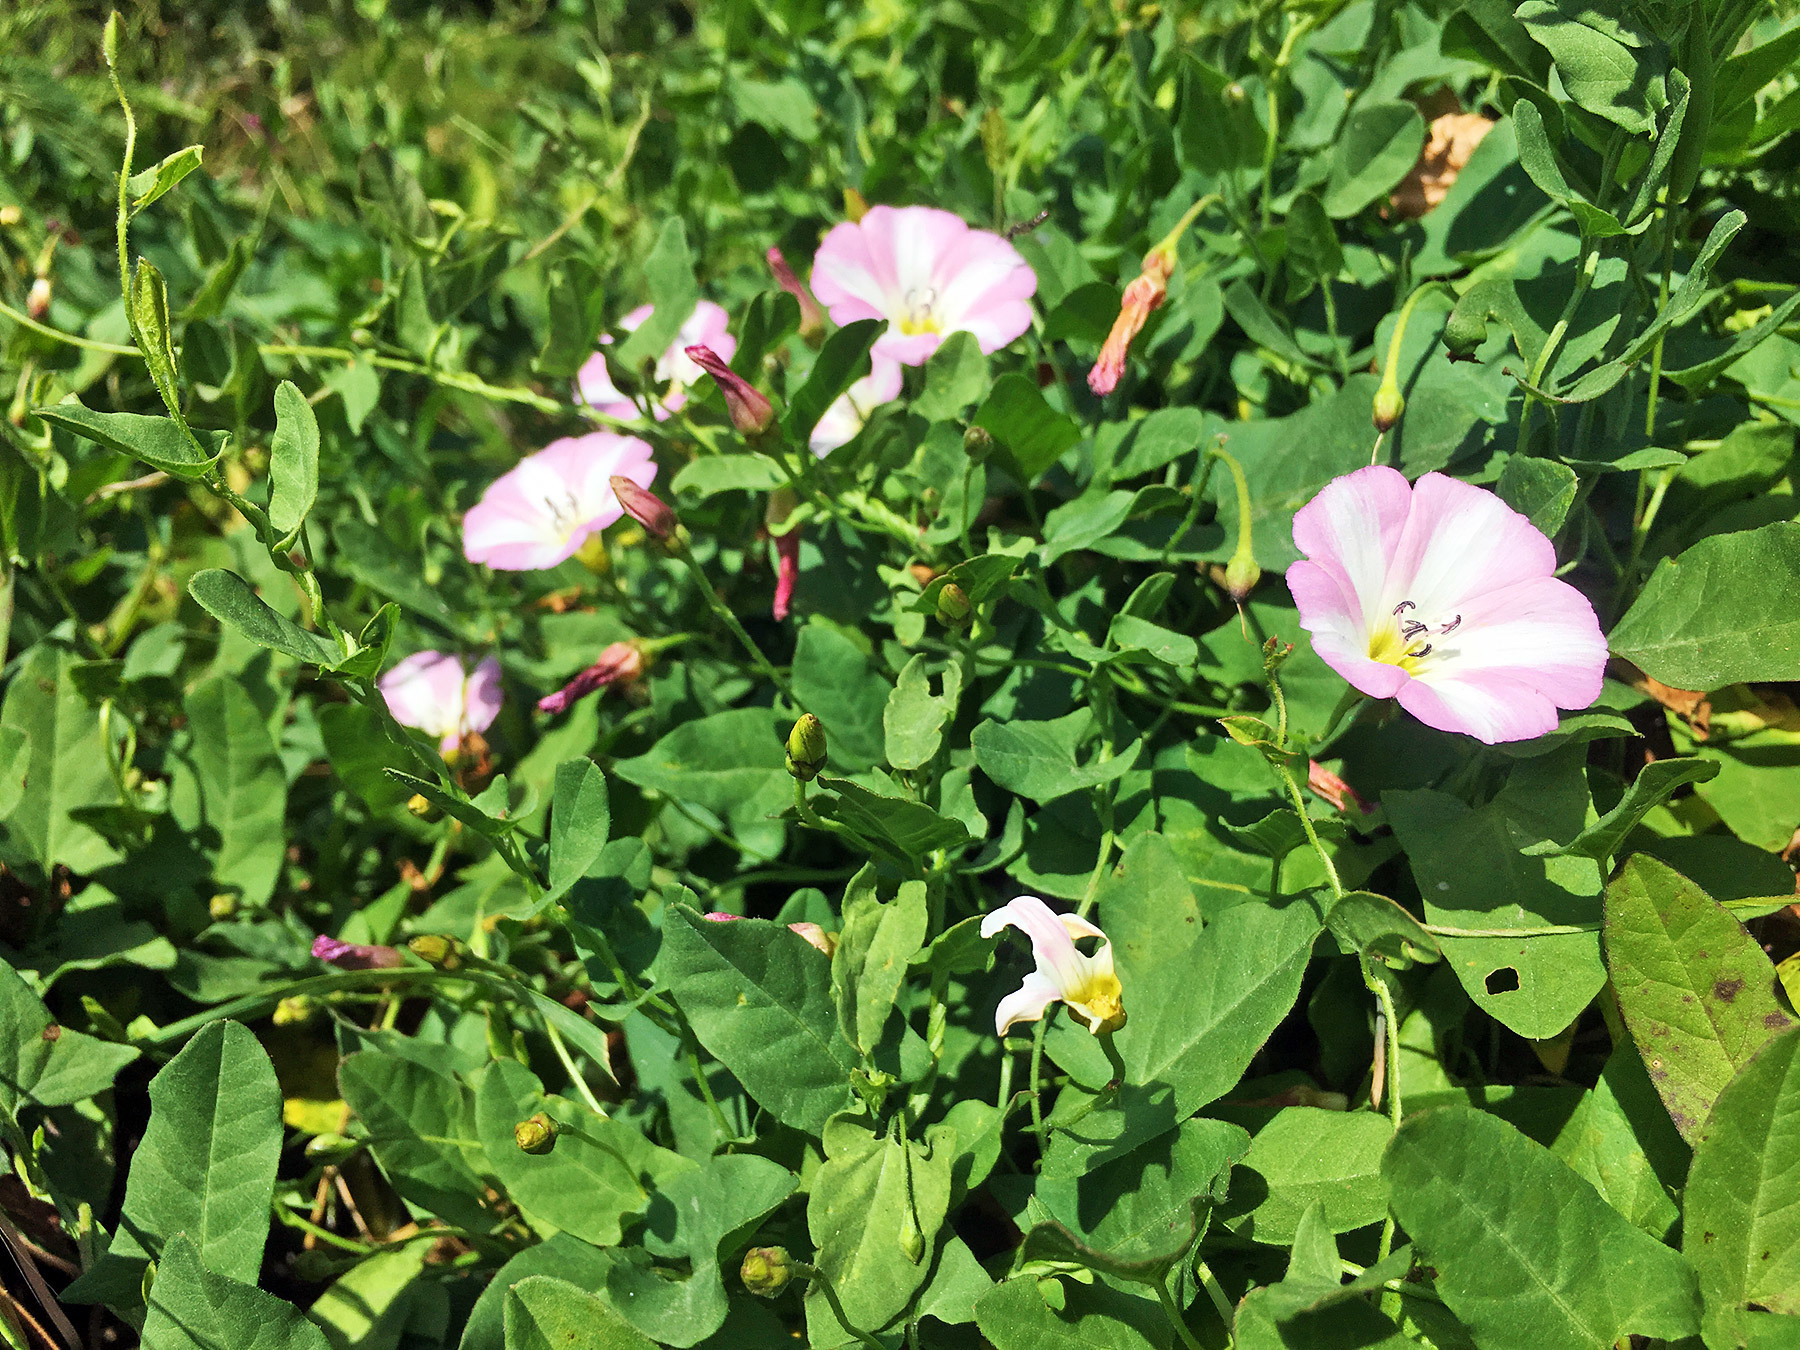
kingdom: Plantae
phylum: Tracheophyta
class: Magnoliopsida
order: Solanales
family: Convolvulaceae
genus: Convolvulus
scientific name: Convolvulus arvensis
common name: Field bindweed
